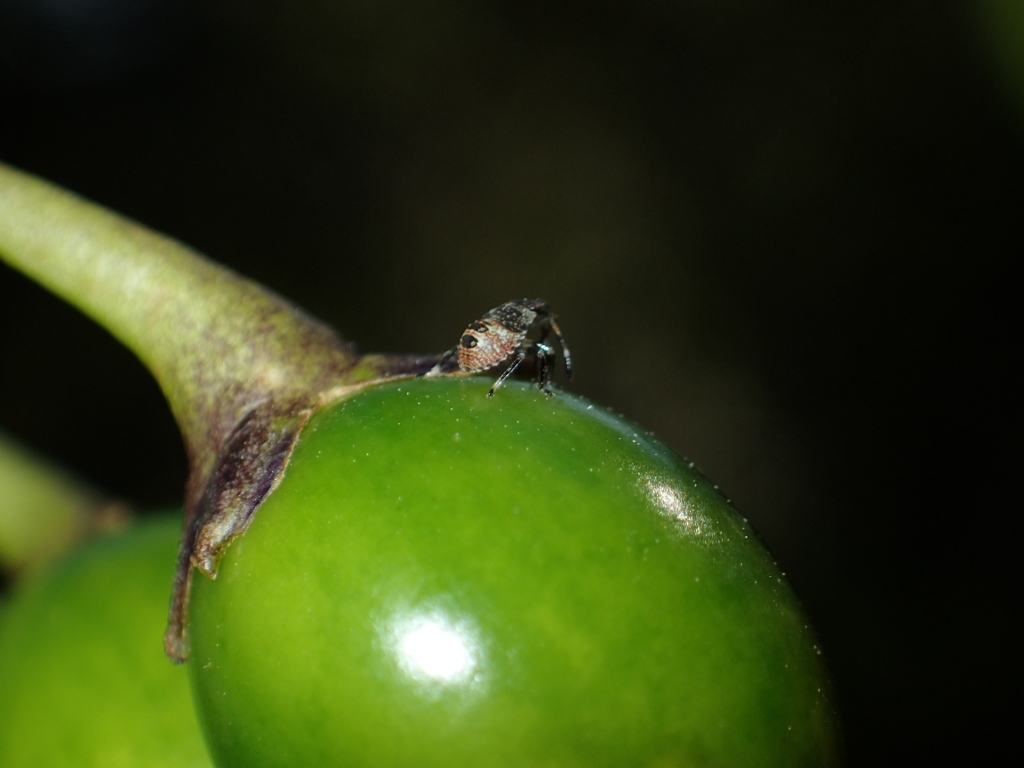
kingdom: Plantae
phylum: Tracheophyta
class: Magnoliopsida
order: Solanales
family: Solanaceae
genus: Solanum
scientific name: Solanum laciniatum
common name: Kangaroo-apple
